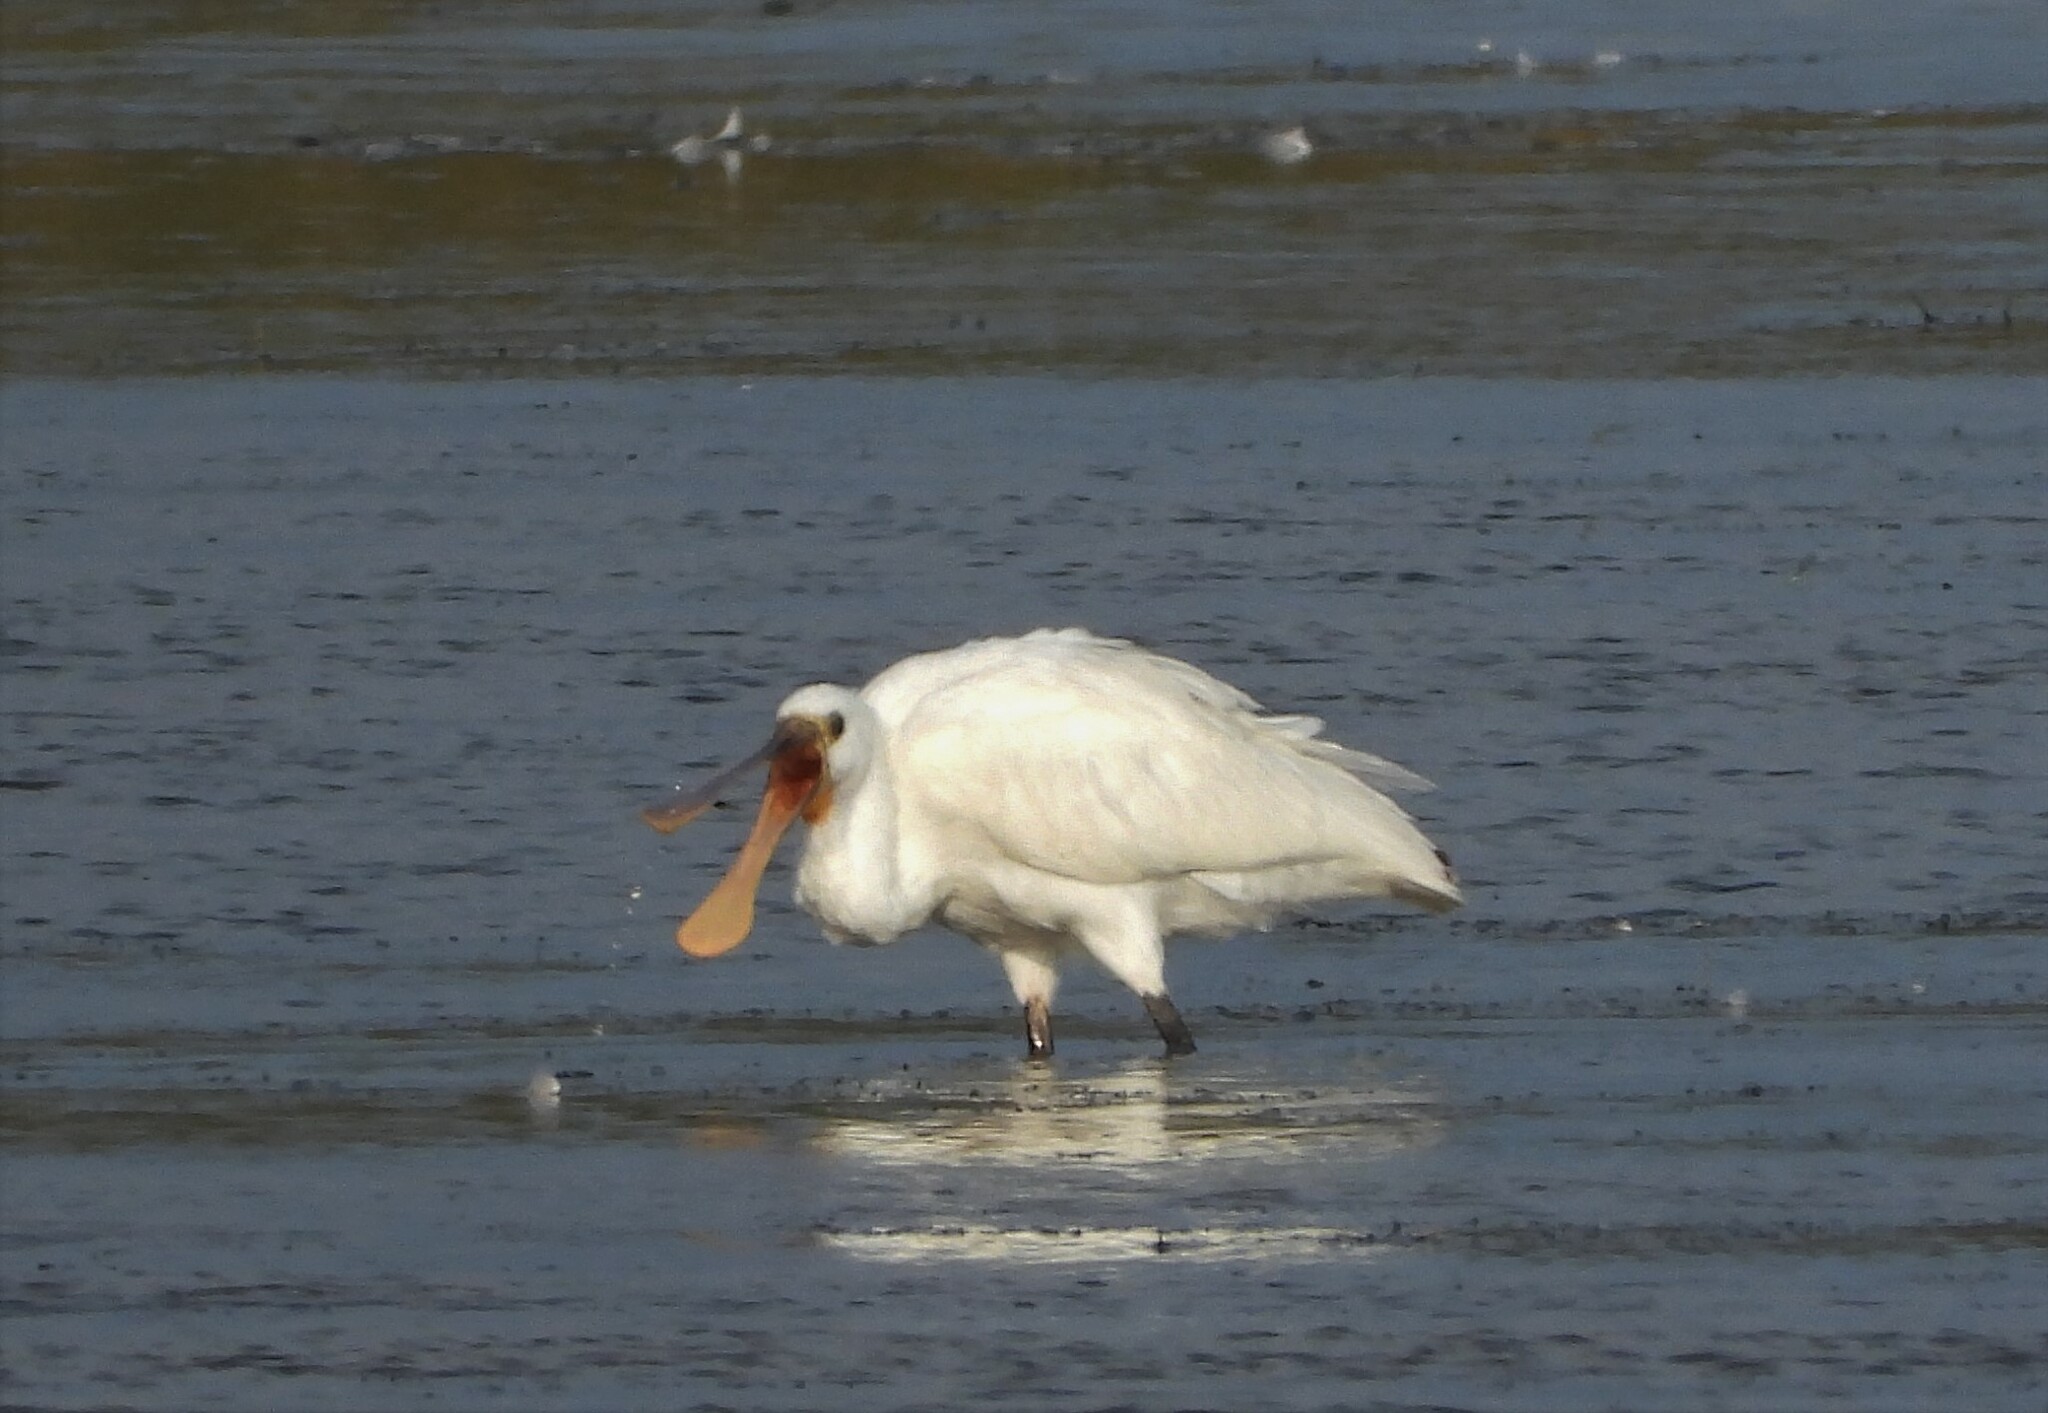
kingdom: Animalia
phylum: Chordata
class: Aves
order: Pelecaniformes
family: Threskiornithidae
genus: Platalea
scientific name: Platalea leucorodia
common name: Eurasian spoonbill
